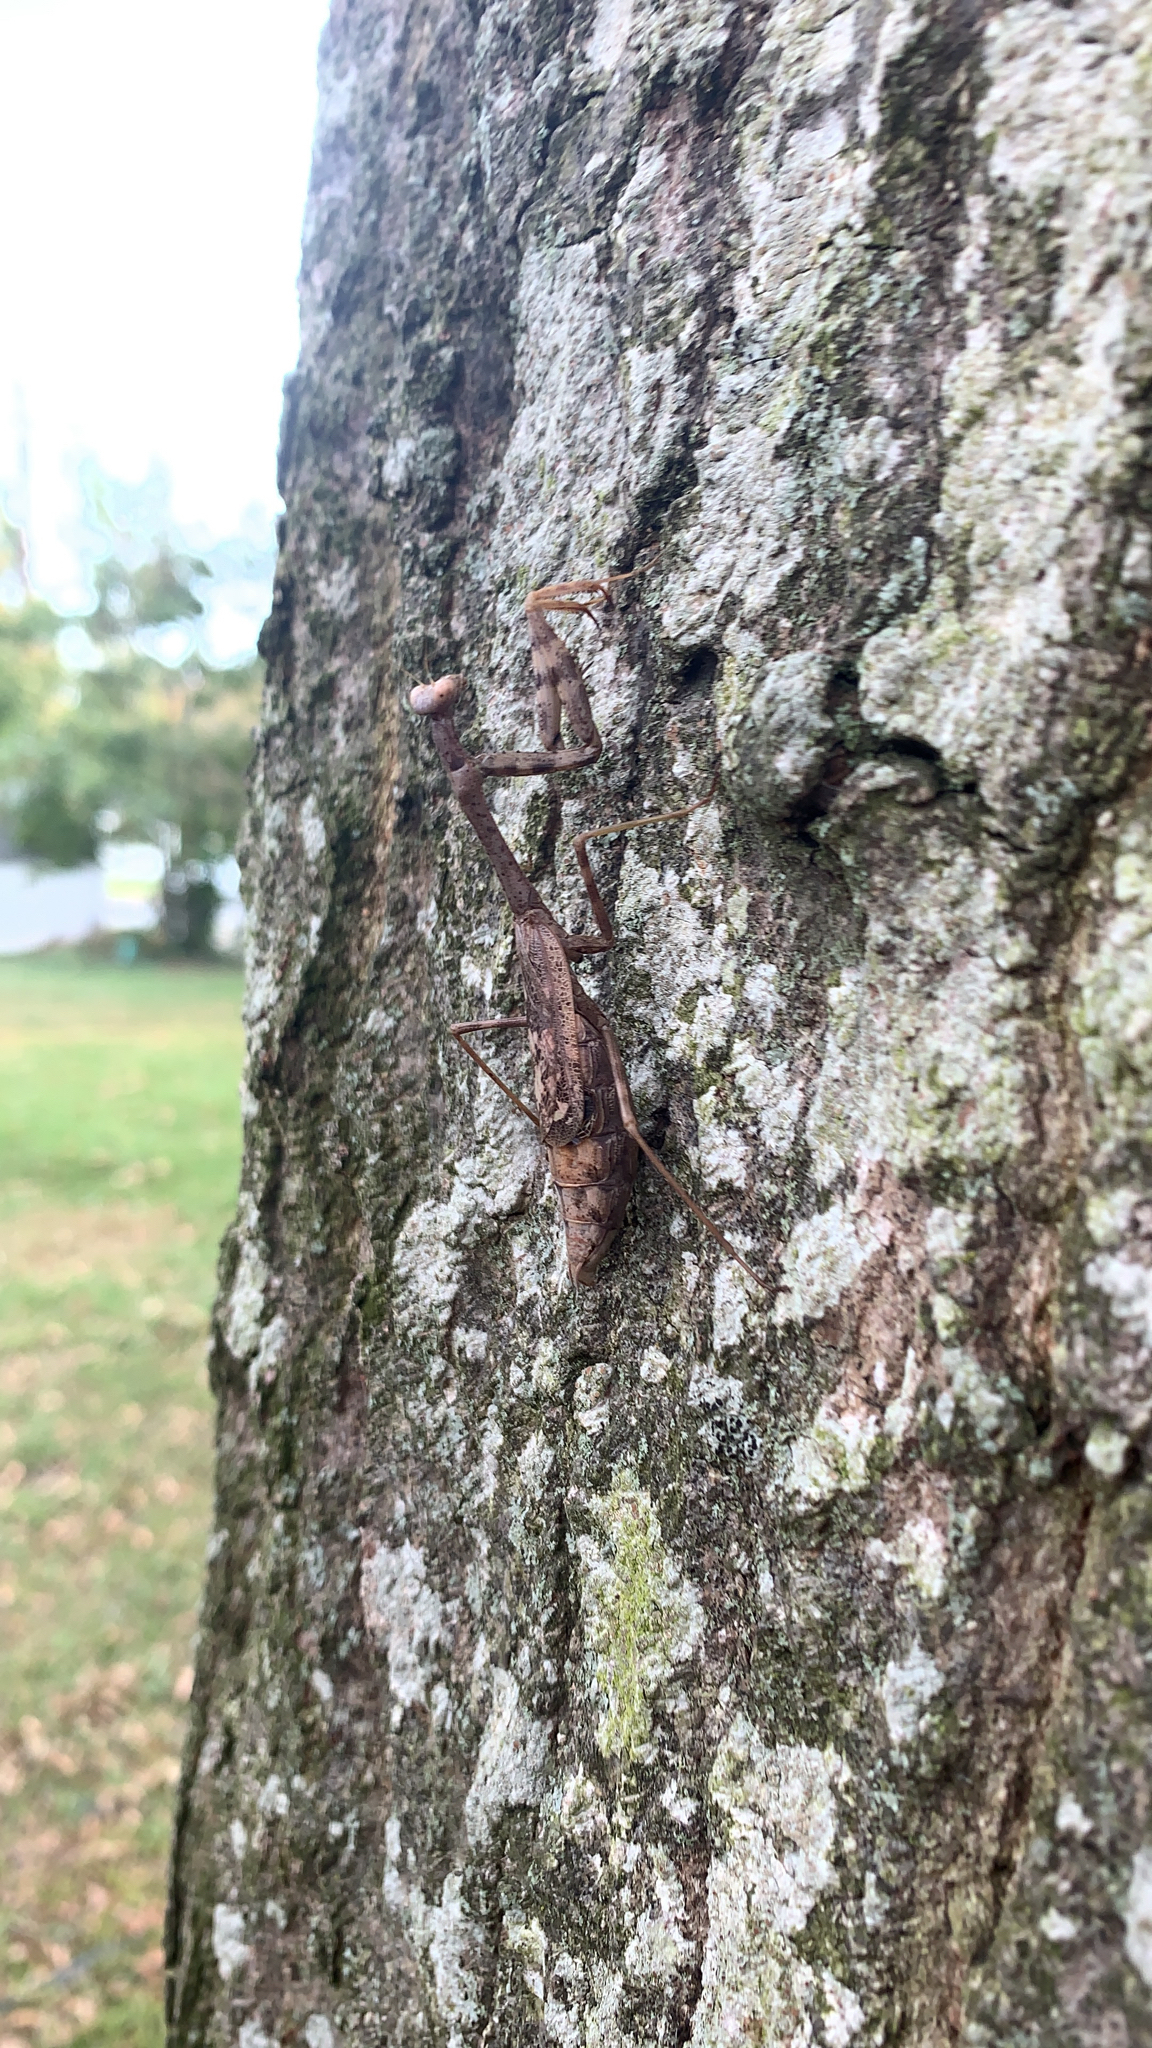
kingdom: Animalia
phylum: Arthropoda
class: Insecta
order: Mantodea
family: Mantidae
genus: Stagmomantis
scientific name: Stagmomantis carolina
